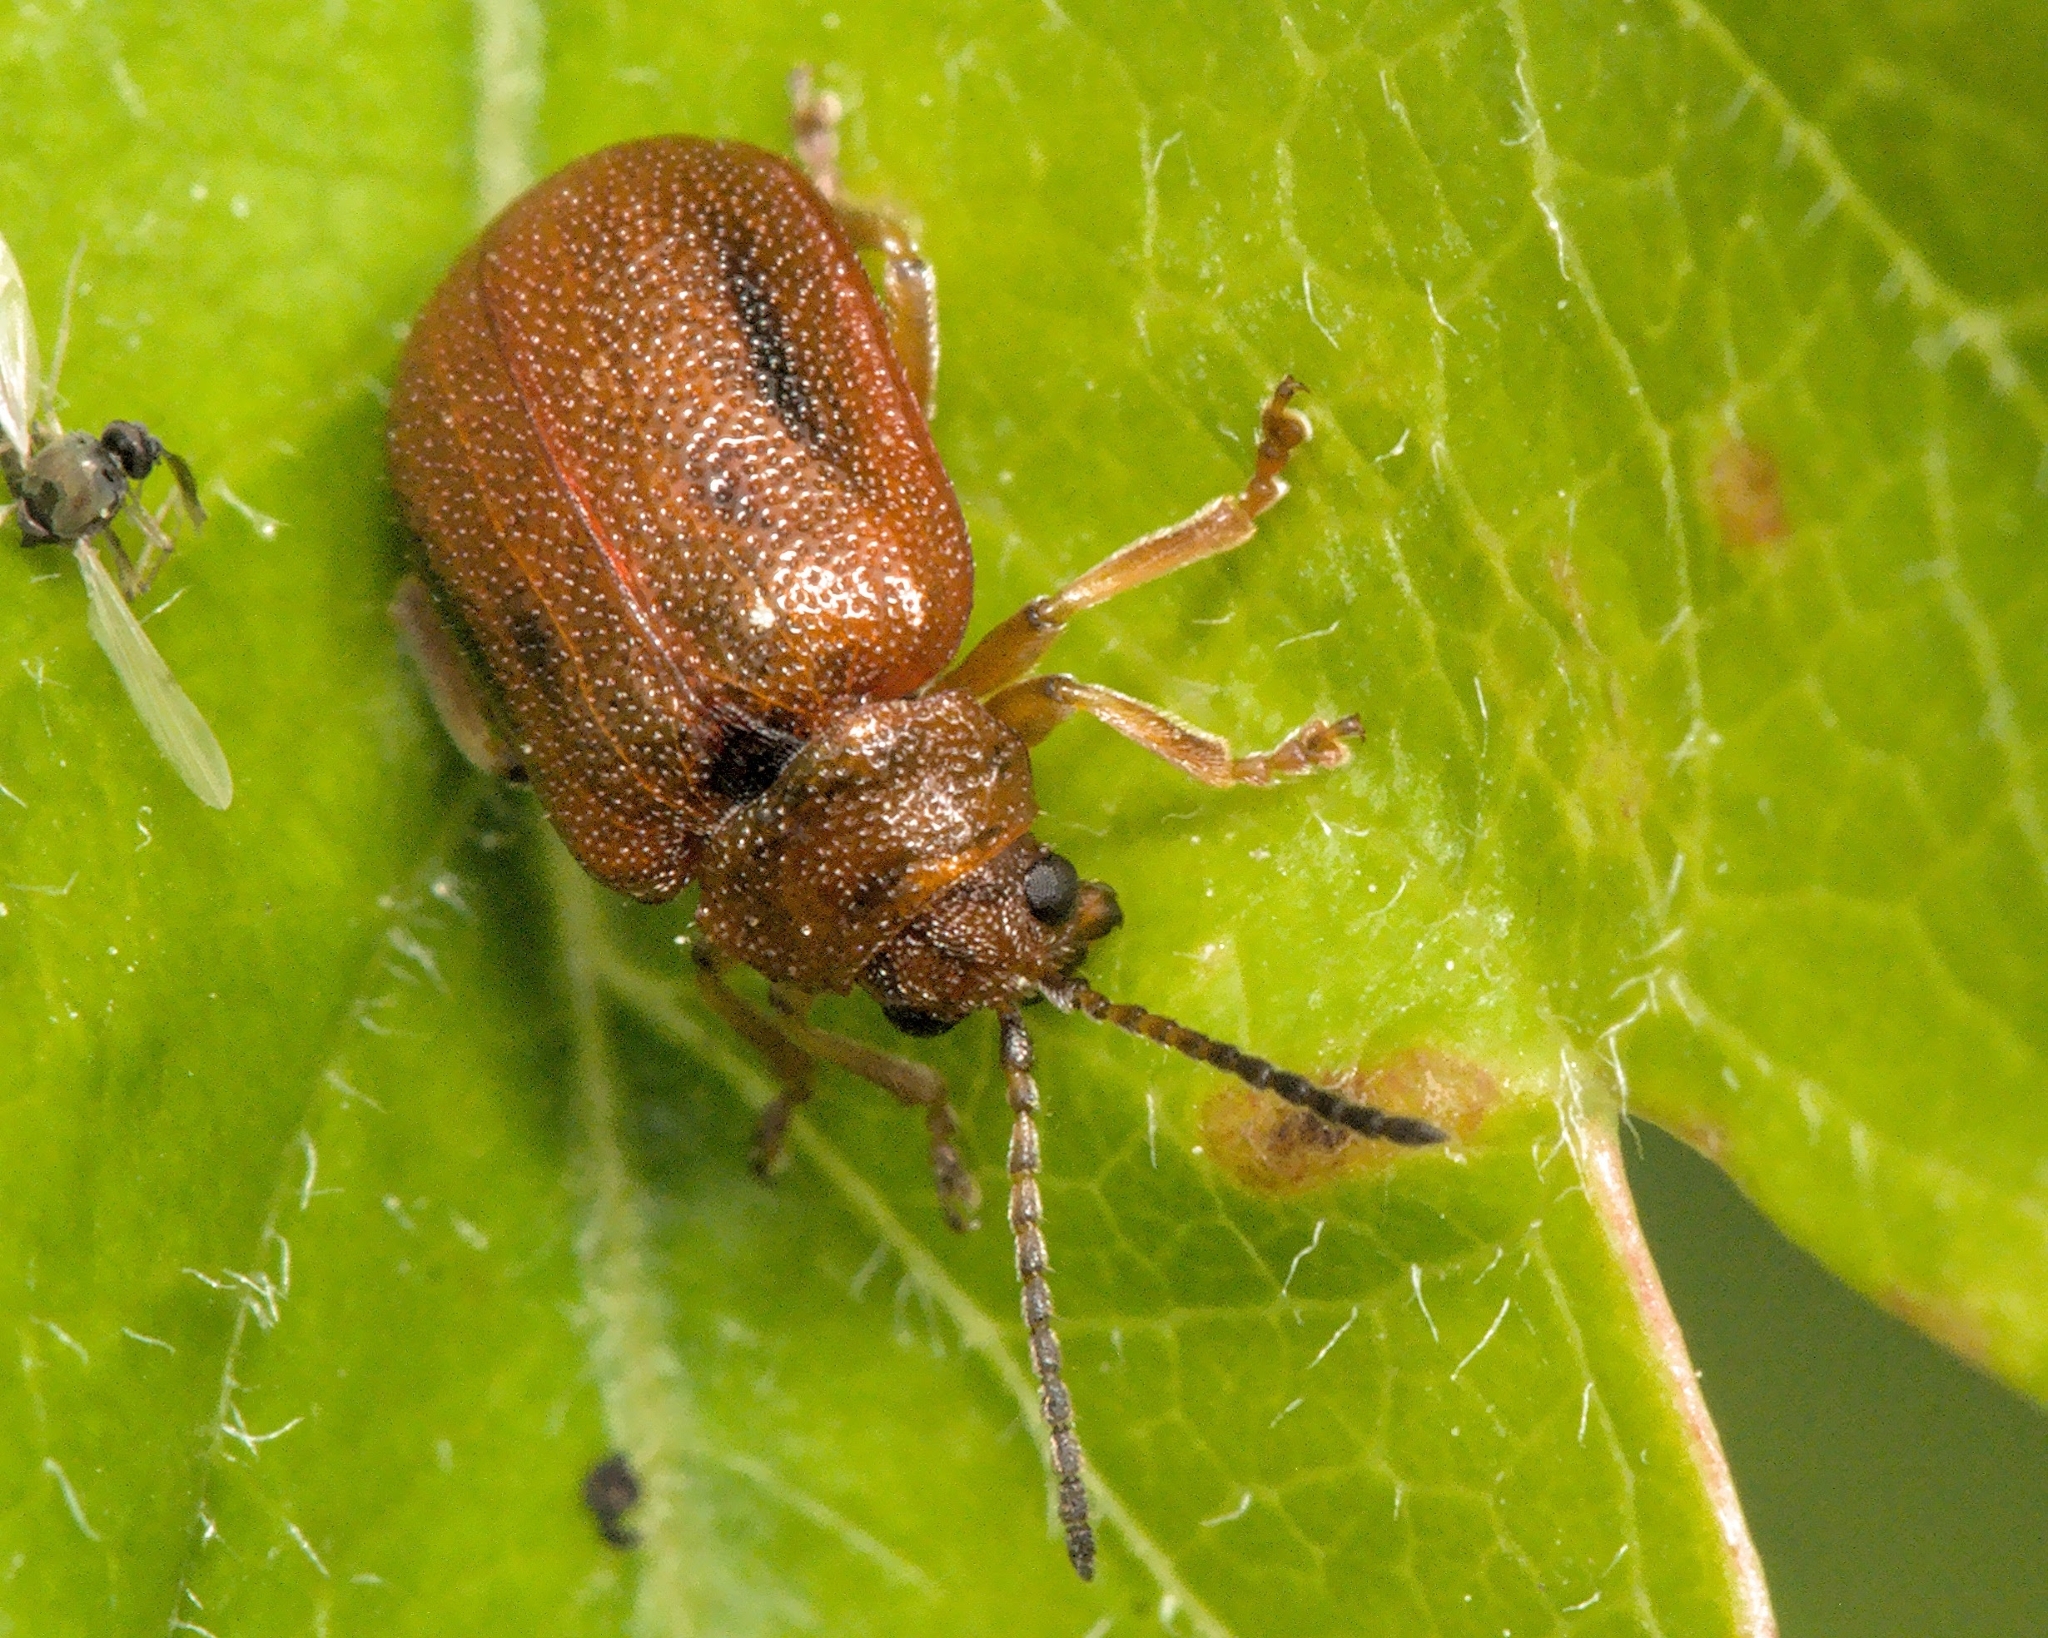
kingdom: Animalia
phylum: Arthropoda
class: Insecta
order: Coleoptera
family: Chrysomelidae
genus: Lochmaea
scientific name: Lochmaea crataegi
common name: Hawthorn leaf beetle
